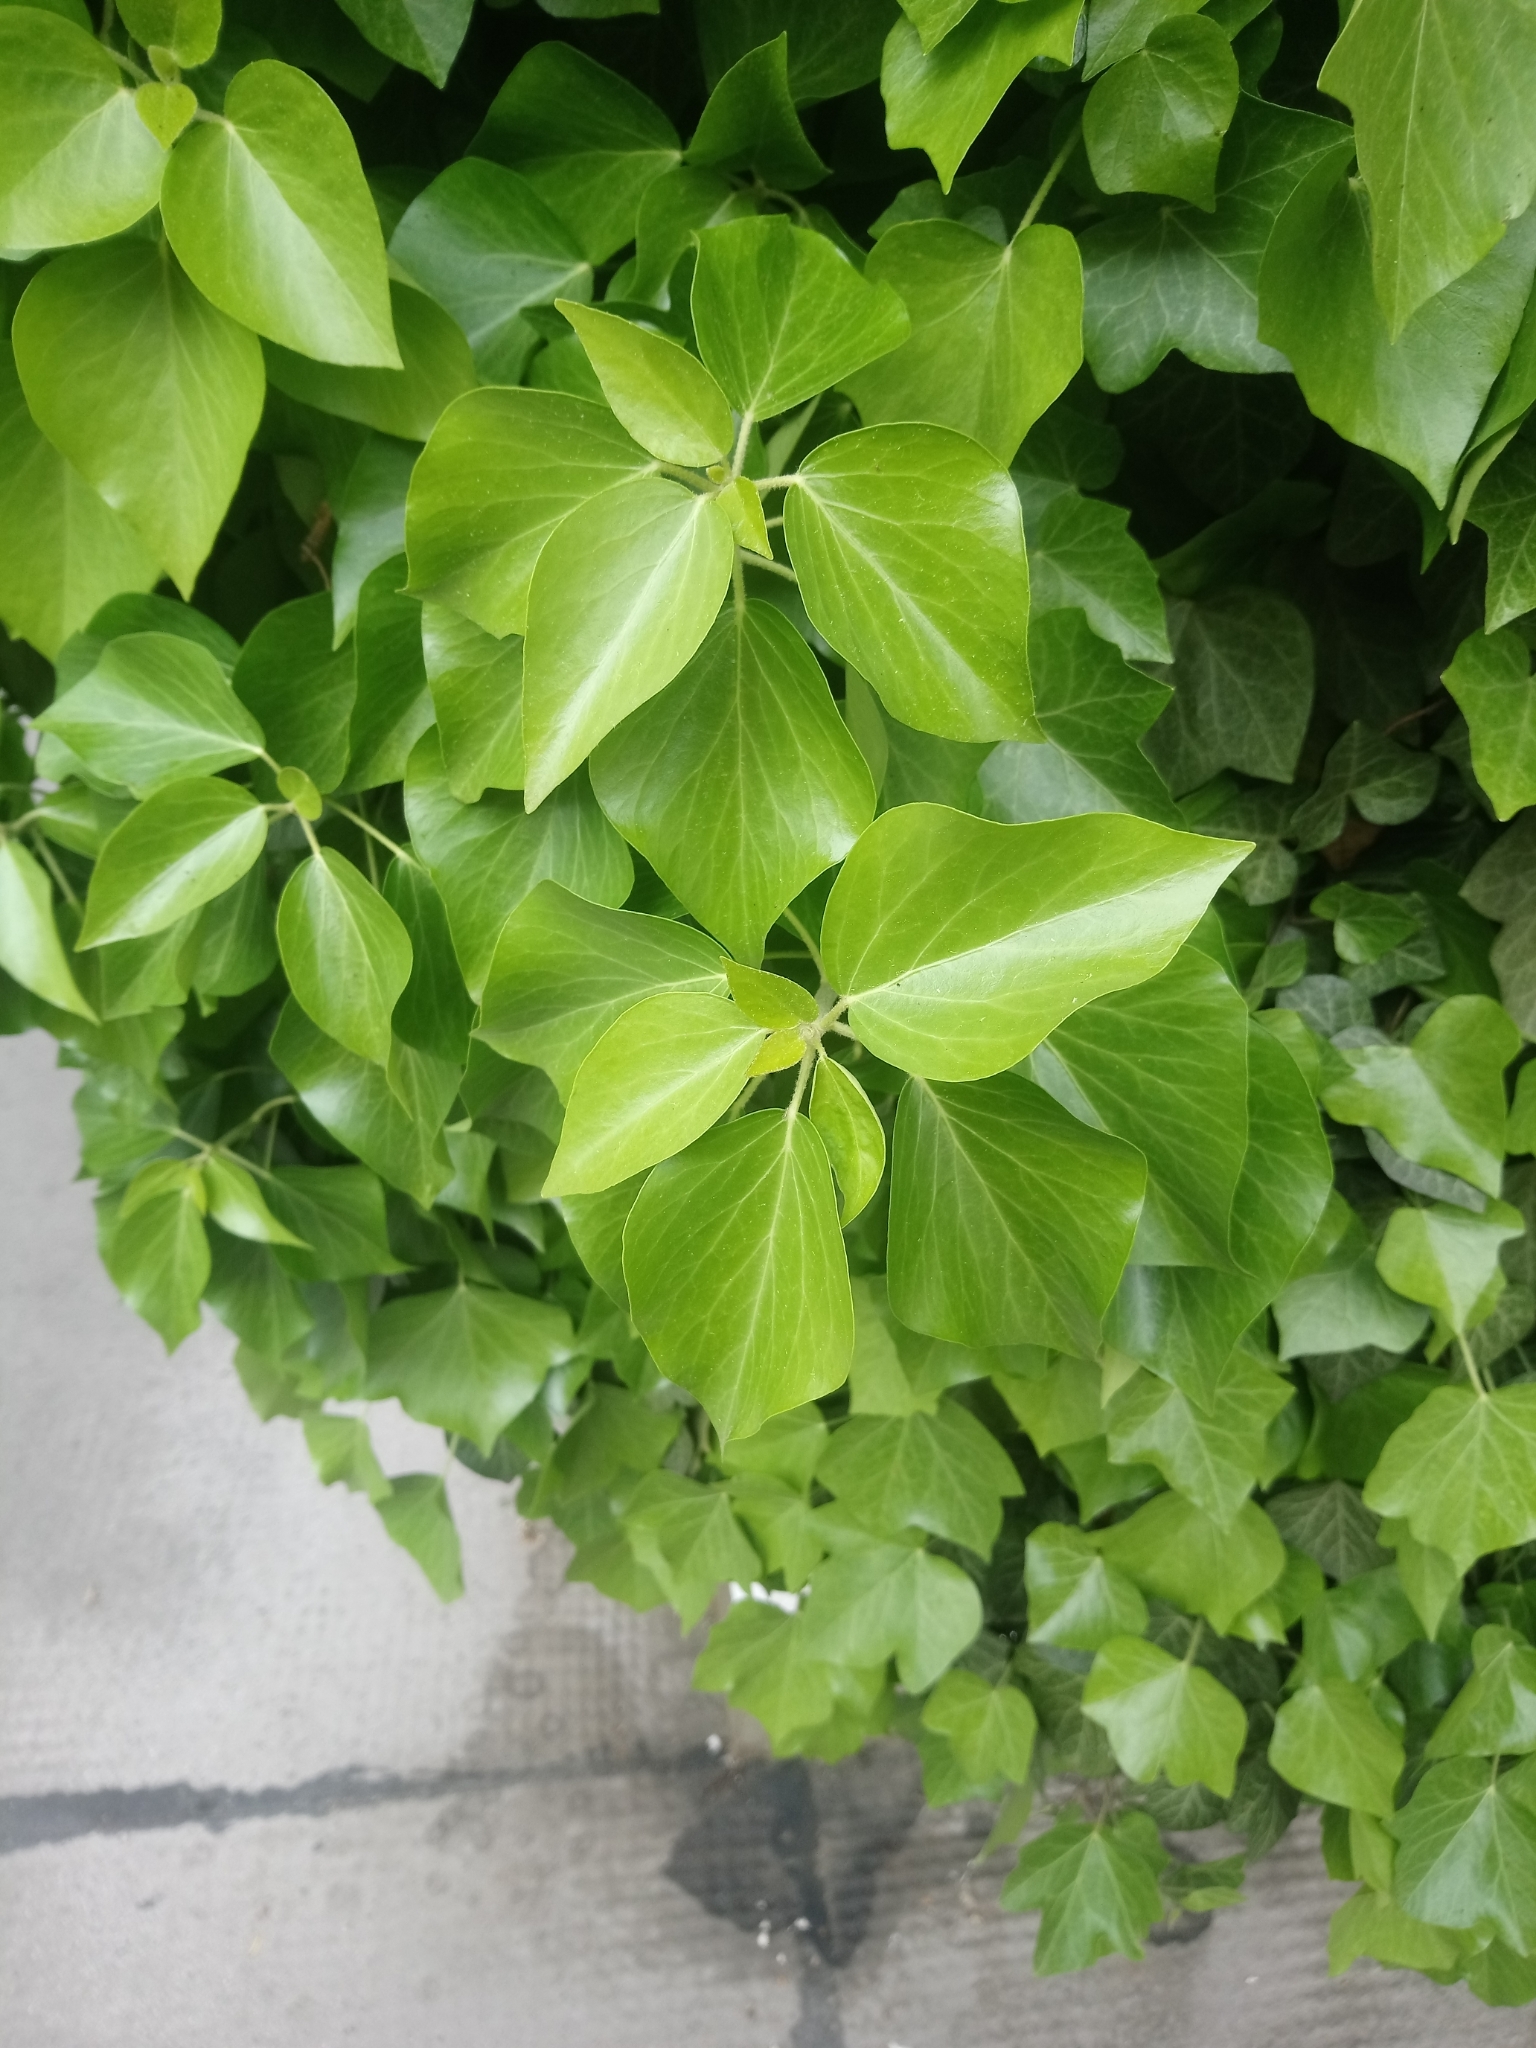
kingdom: Plantae
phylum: Tracheophyta
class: Magnoliopsida
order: Apiales
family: Araliaceae
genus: Hedera
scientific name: Hedera helix
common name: Ivy
